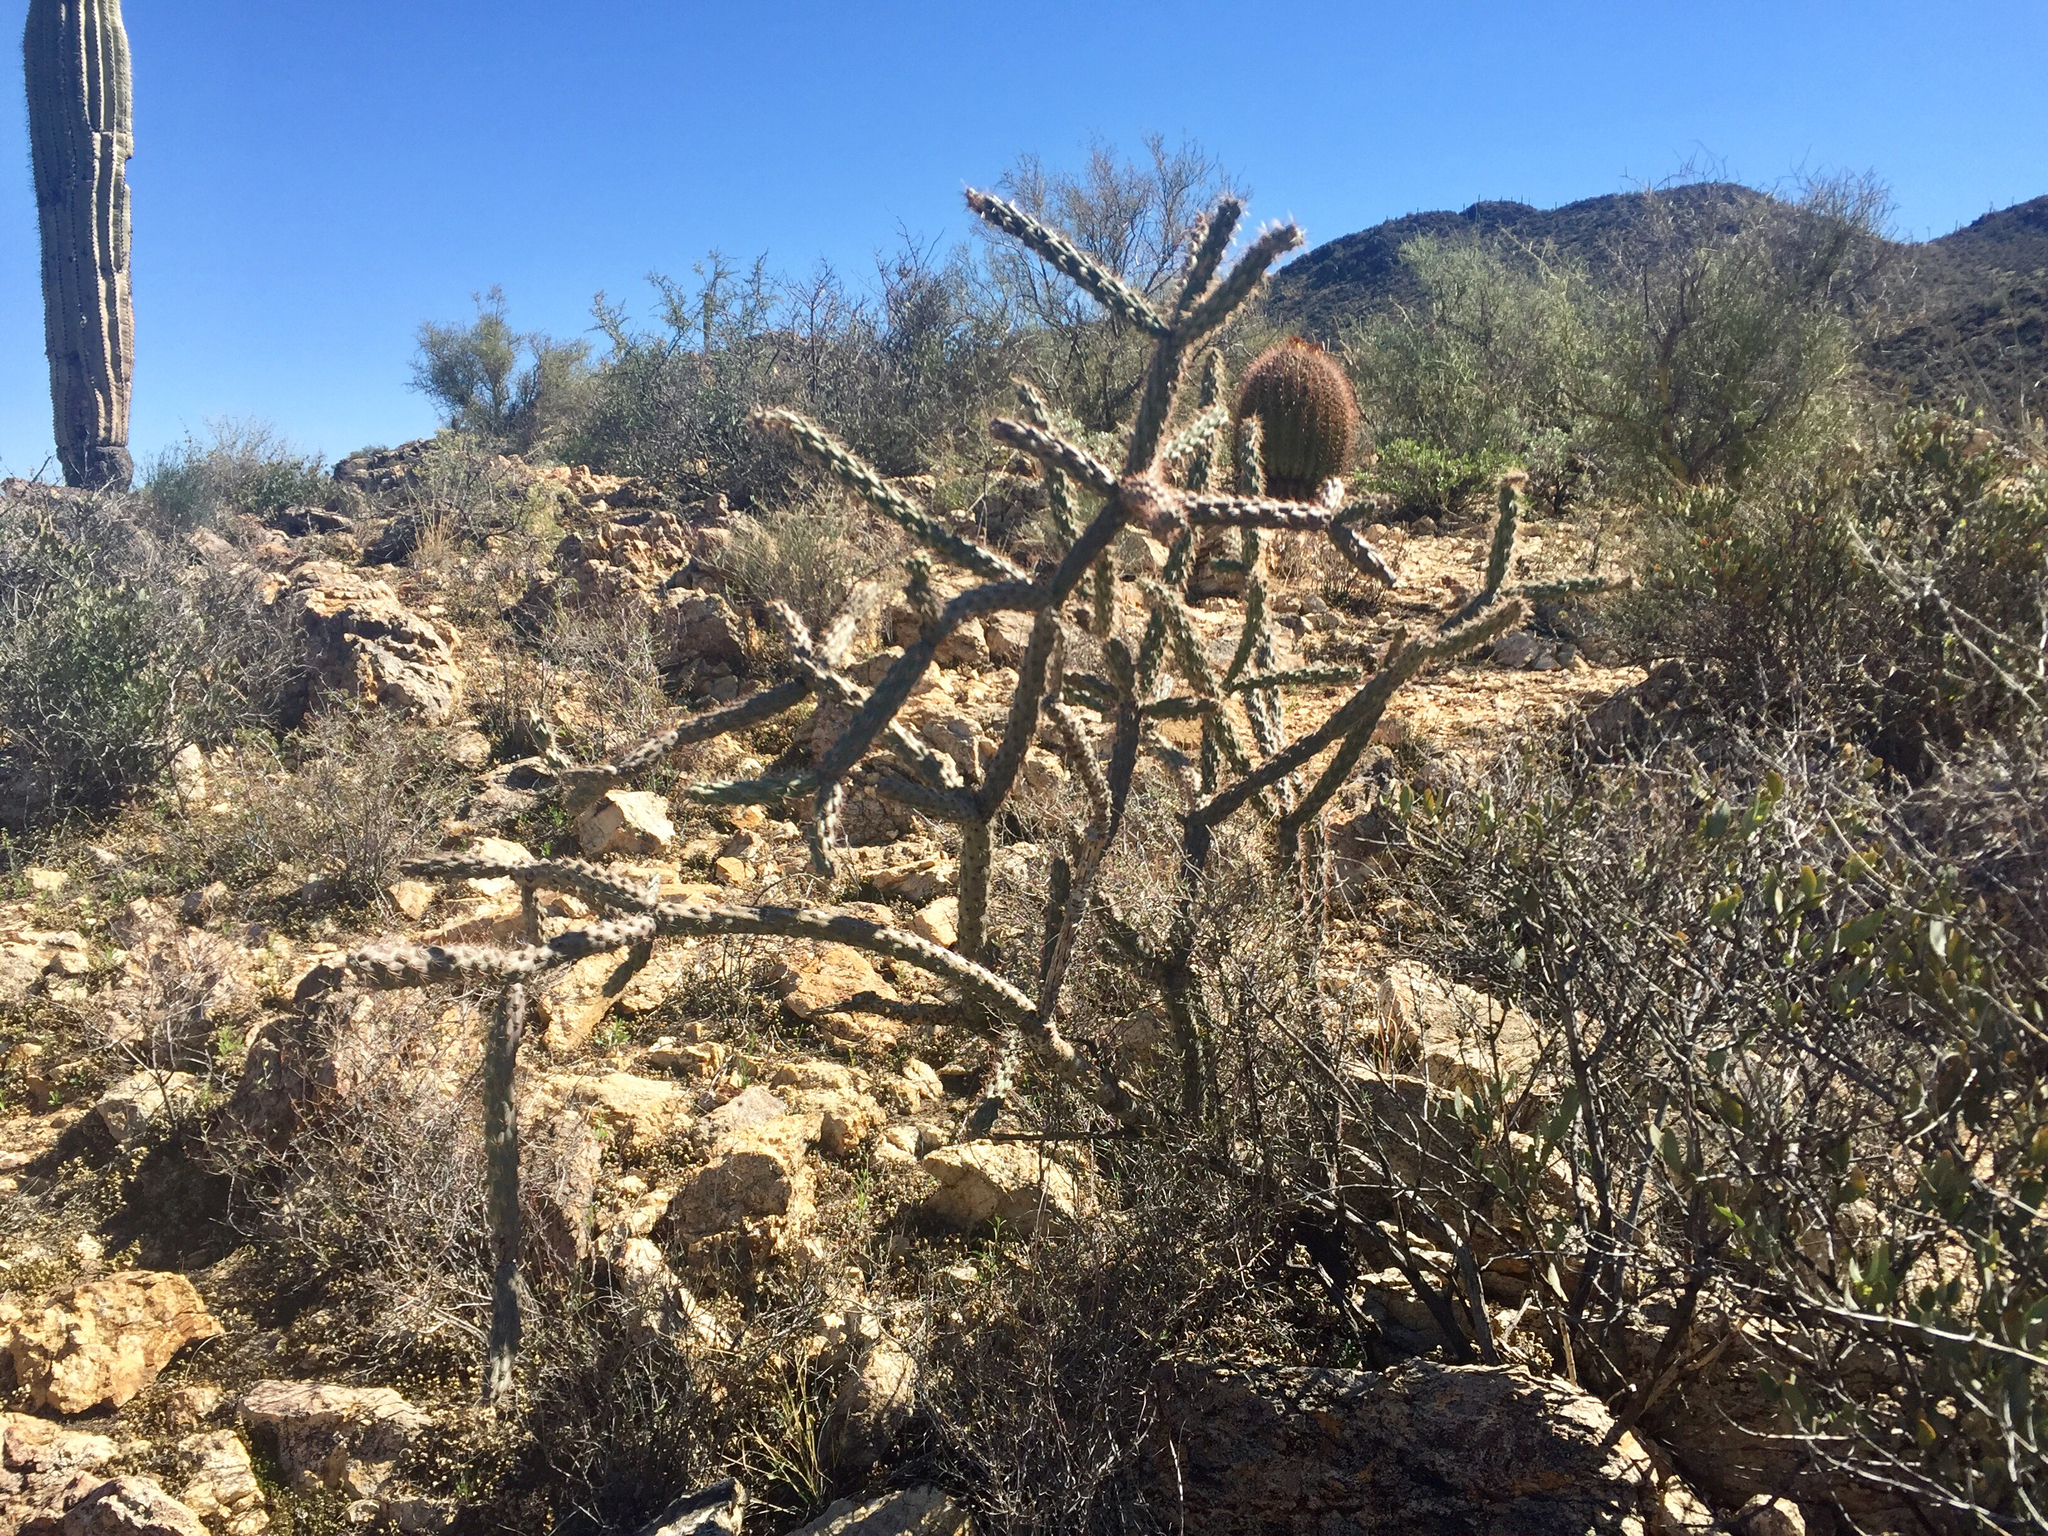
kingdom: Plantae
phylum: Tracheophyta
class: Magnoliopsida
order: Caryophyllales
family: Cactaceae
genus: Cylindropuntia
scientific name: Cylindropuntia acanthocarpa
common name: Buckhorn cholla
